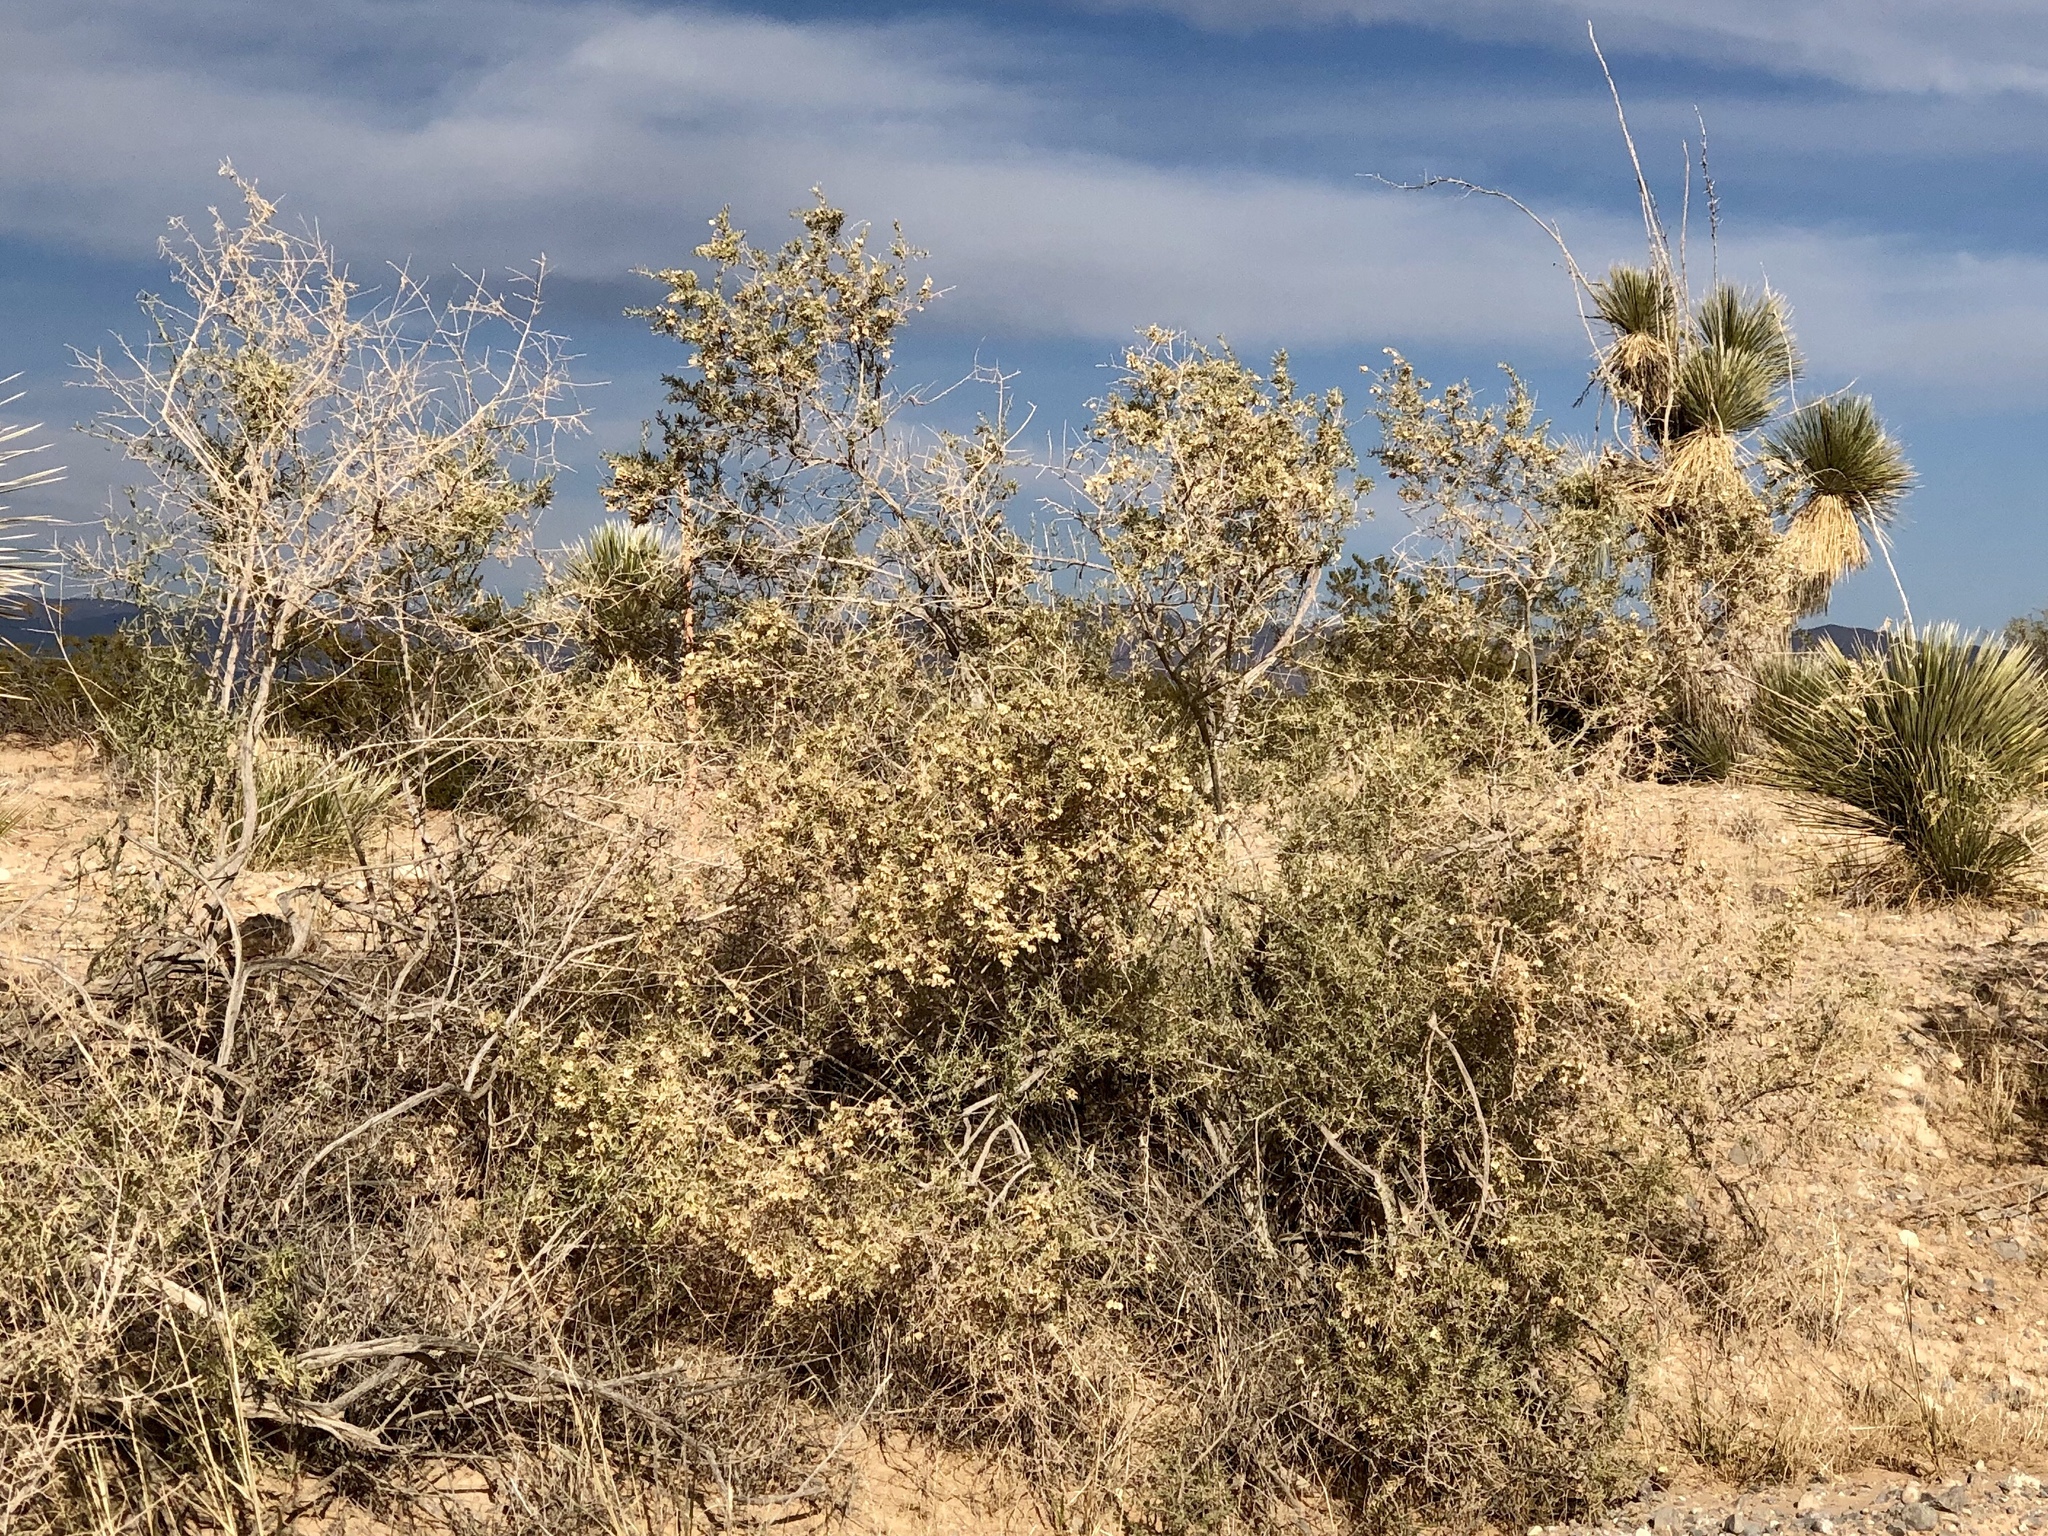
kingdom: Plantae
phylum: Tracheophyta
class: Magnoliopsida
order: Caryophyllales
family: Amaranthaceae
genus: Atriplex
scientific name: Atriplex canescens
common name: Four-wing saltbush
